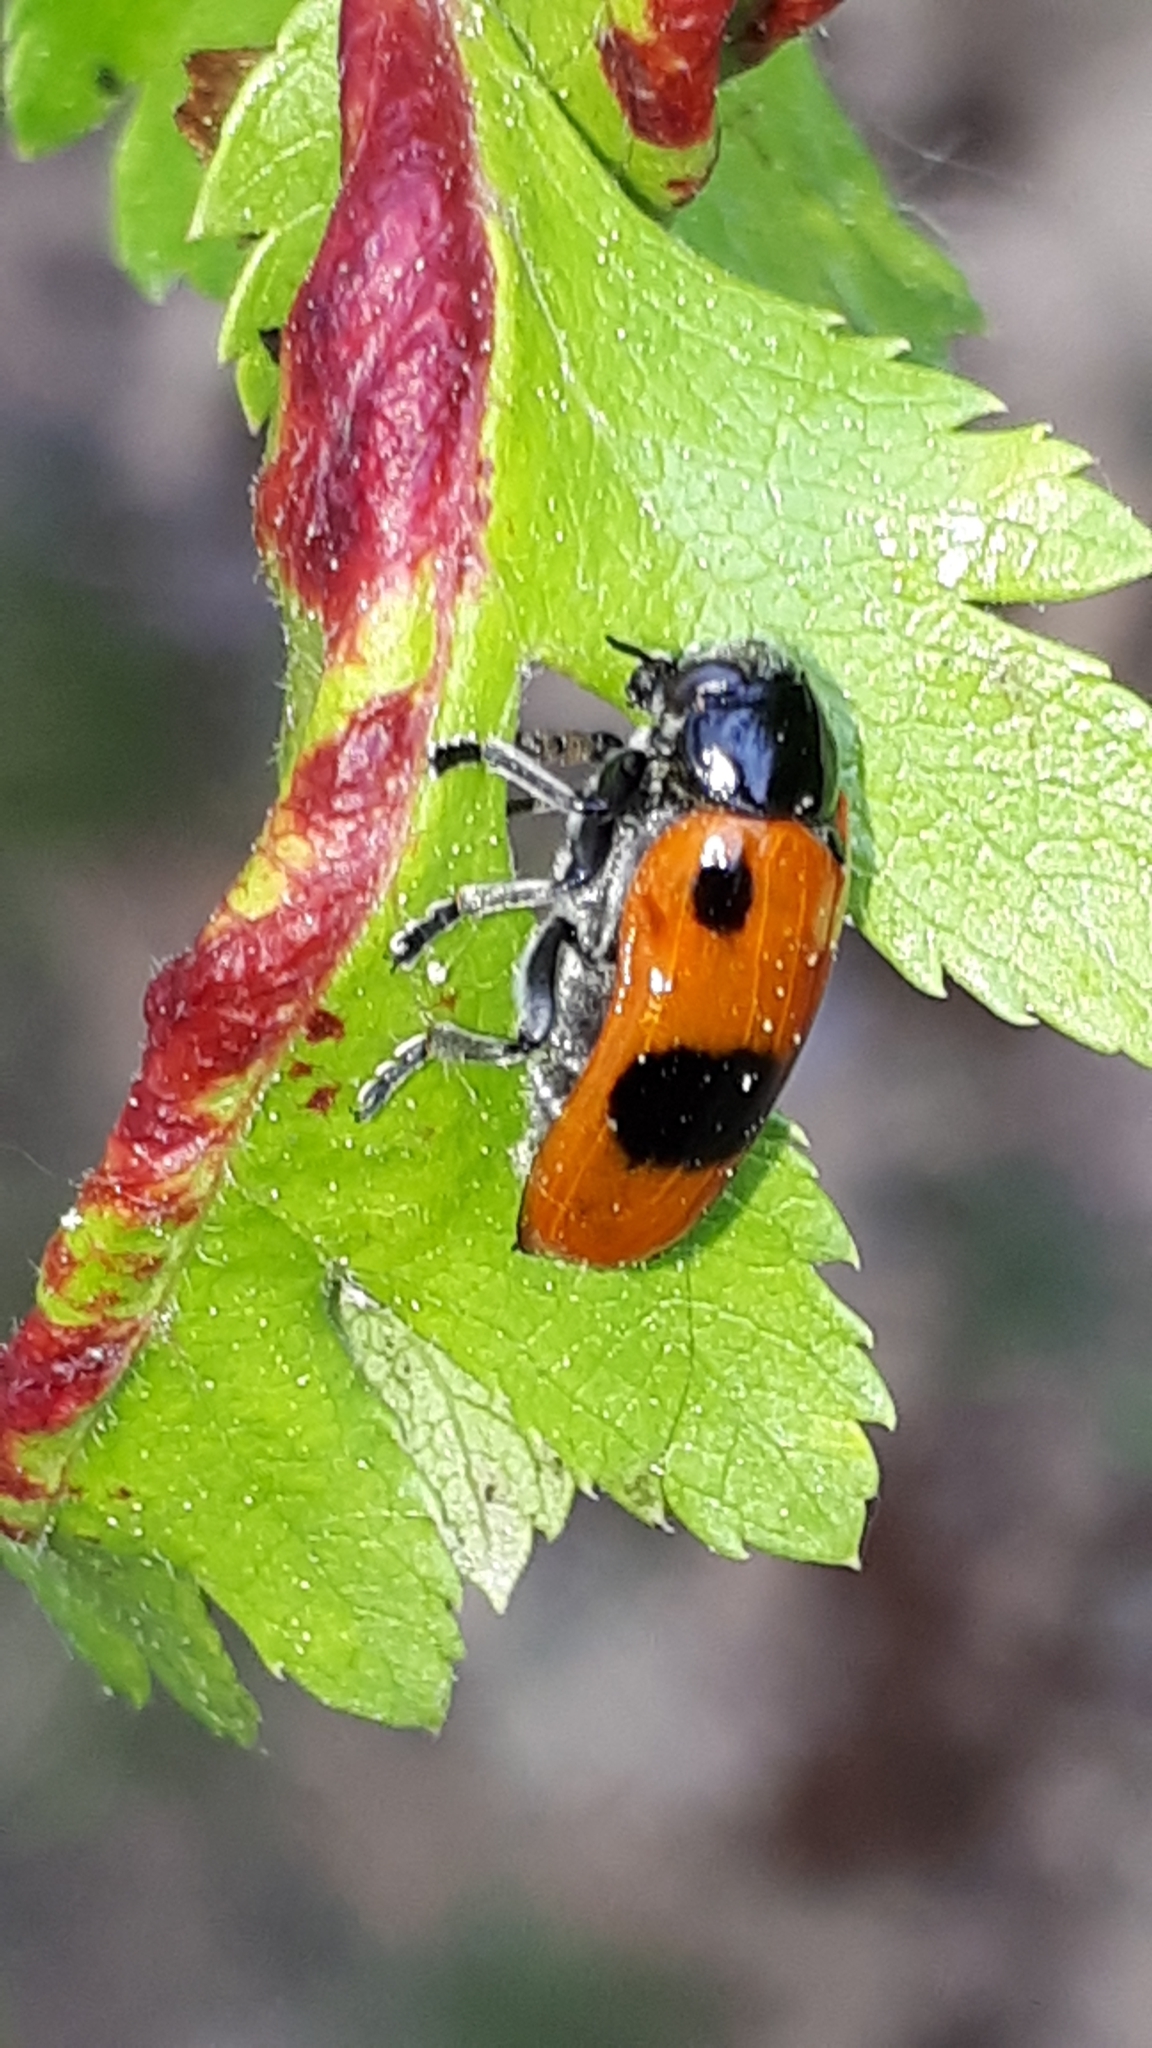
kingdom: Animalia
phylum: Arthropoda
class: Insecta
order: Coleoptera
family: Chrysomelidae
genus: Clytra
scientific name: Clytra laeviuscula
